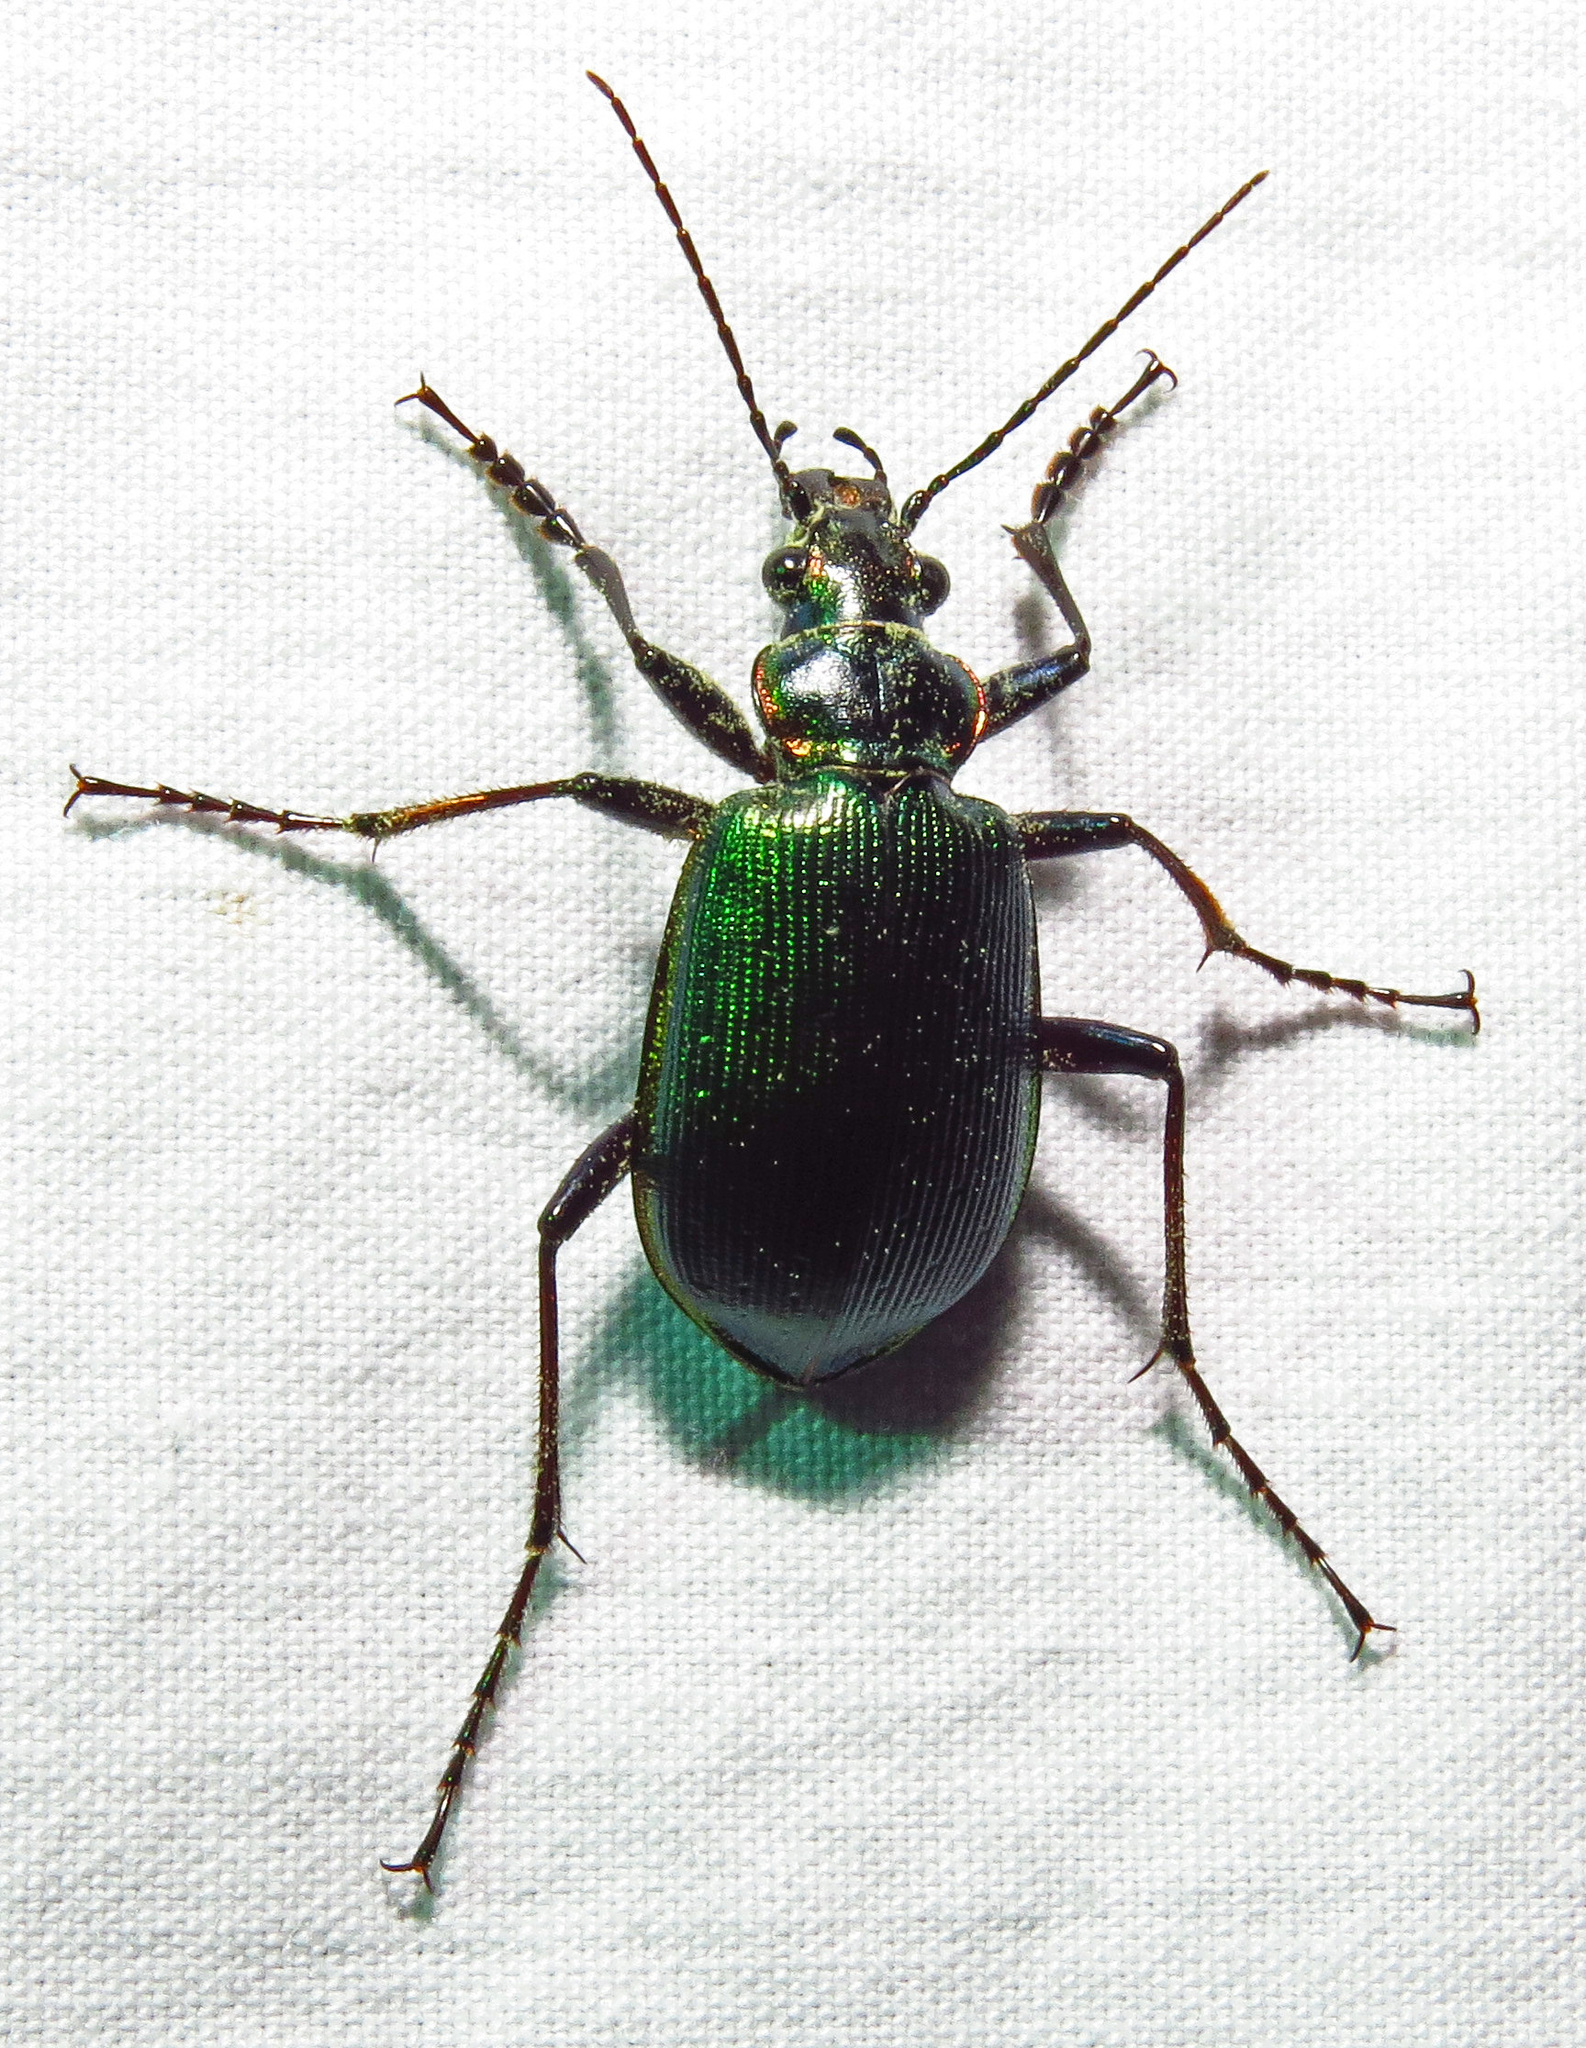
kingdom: Animalia
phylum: Arthropoda
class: Insecta
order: Coleoptera
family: Carabidae
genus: Calosoma
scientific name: Calosoma wilcoxi
